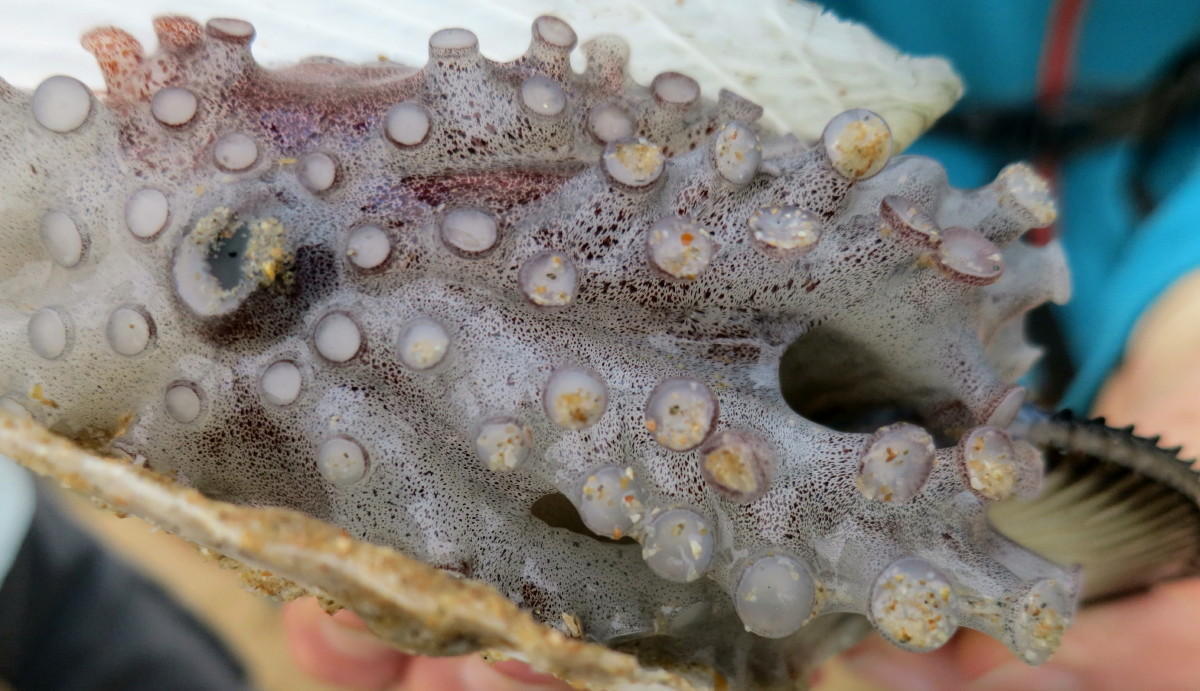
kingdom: Animalia
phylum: Mollusca
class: Cephalopoda
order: Octopoda
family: Argonautidae
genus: Argonauta
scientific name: Argonauta argo
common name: Common paper nautilus
